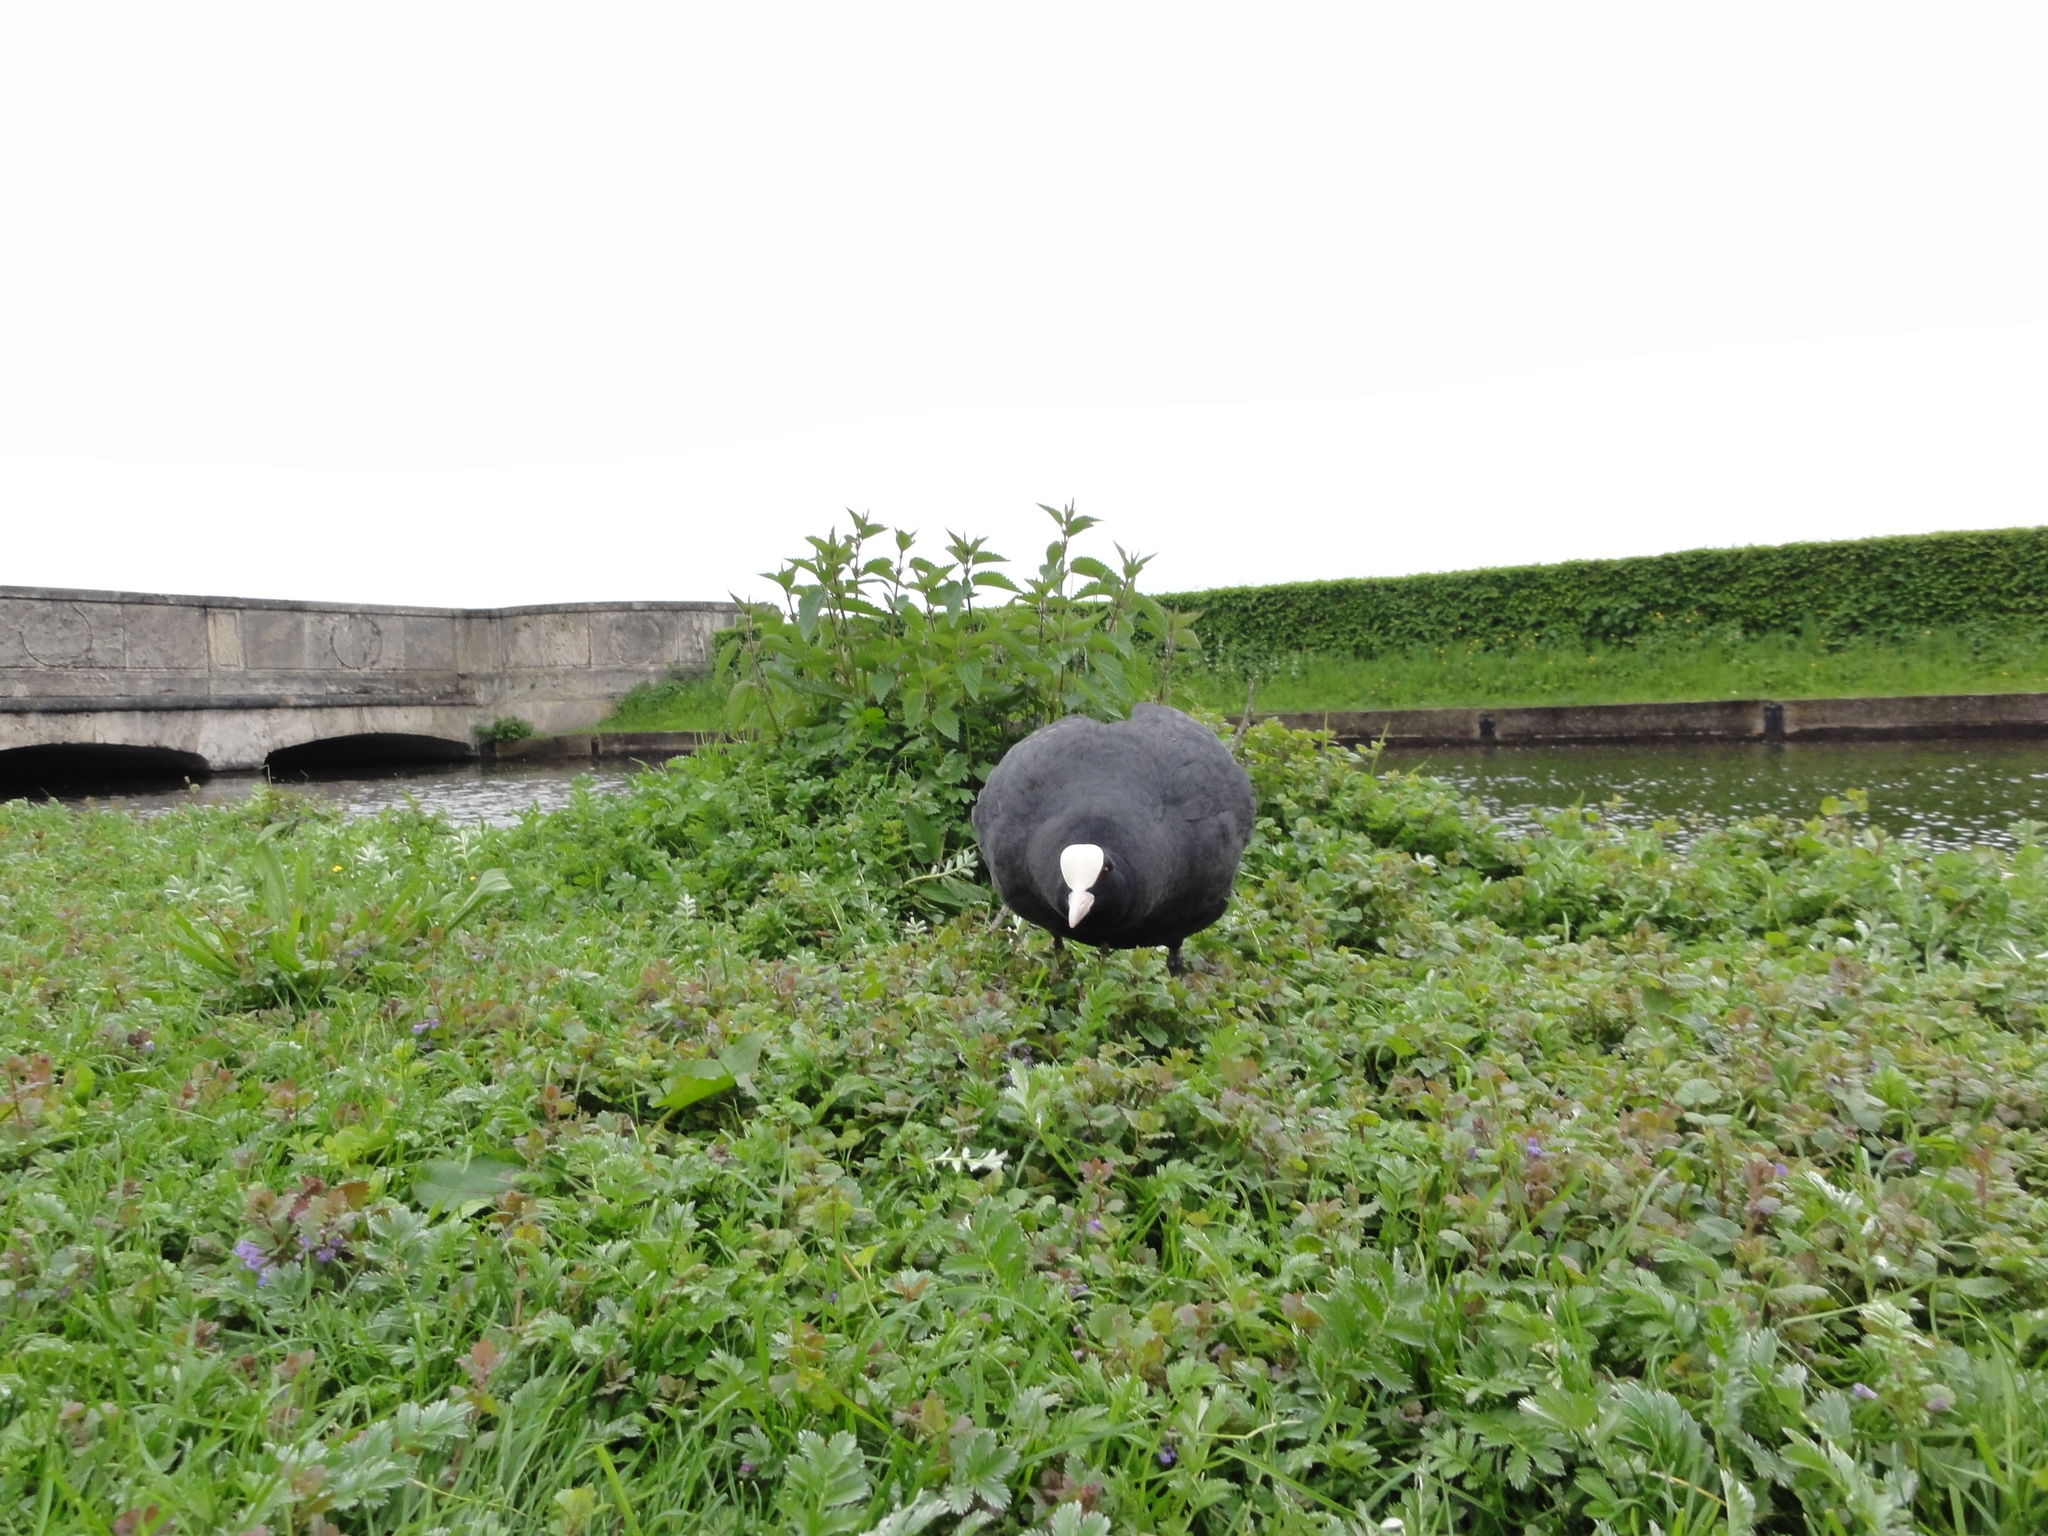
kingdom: Animalia
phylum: Chordata
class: Aves
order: Gruiformes
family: Rallidae
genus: Fulica
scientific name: Fulica atra
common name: Eurasian coot
